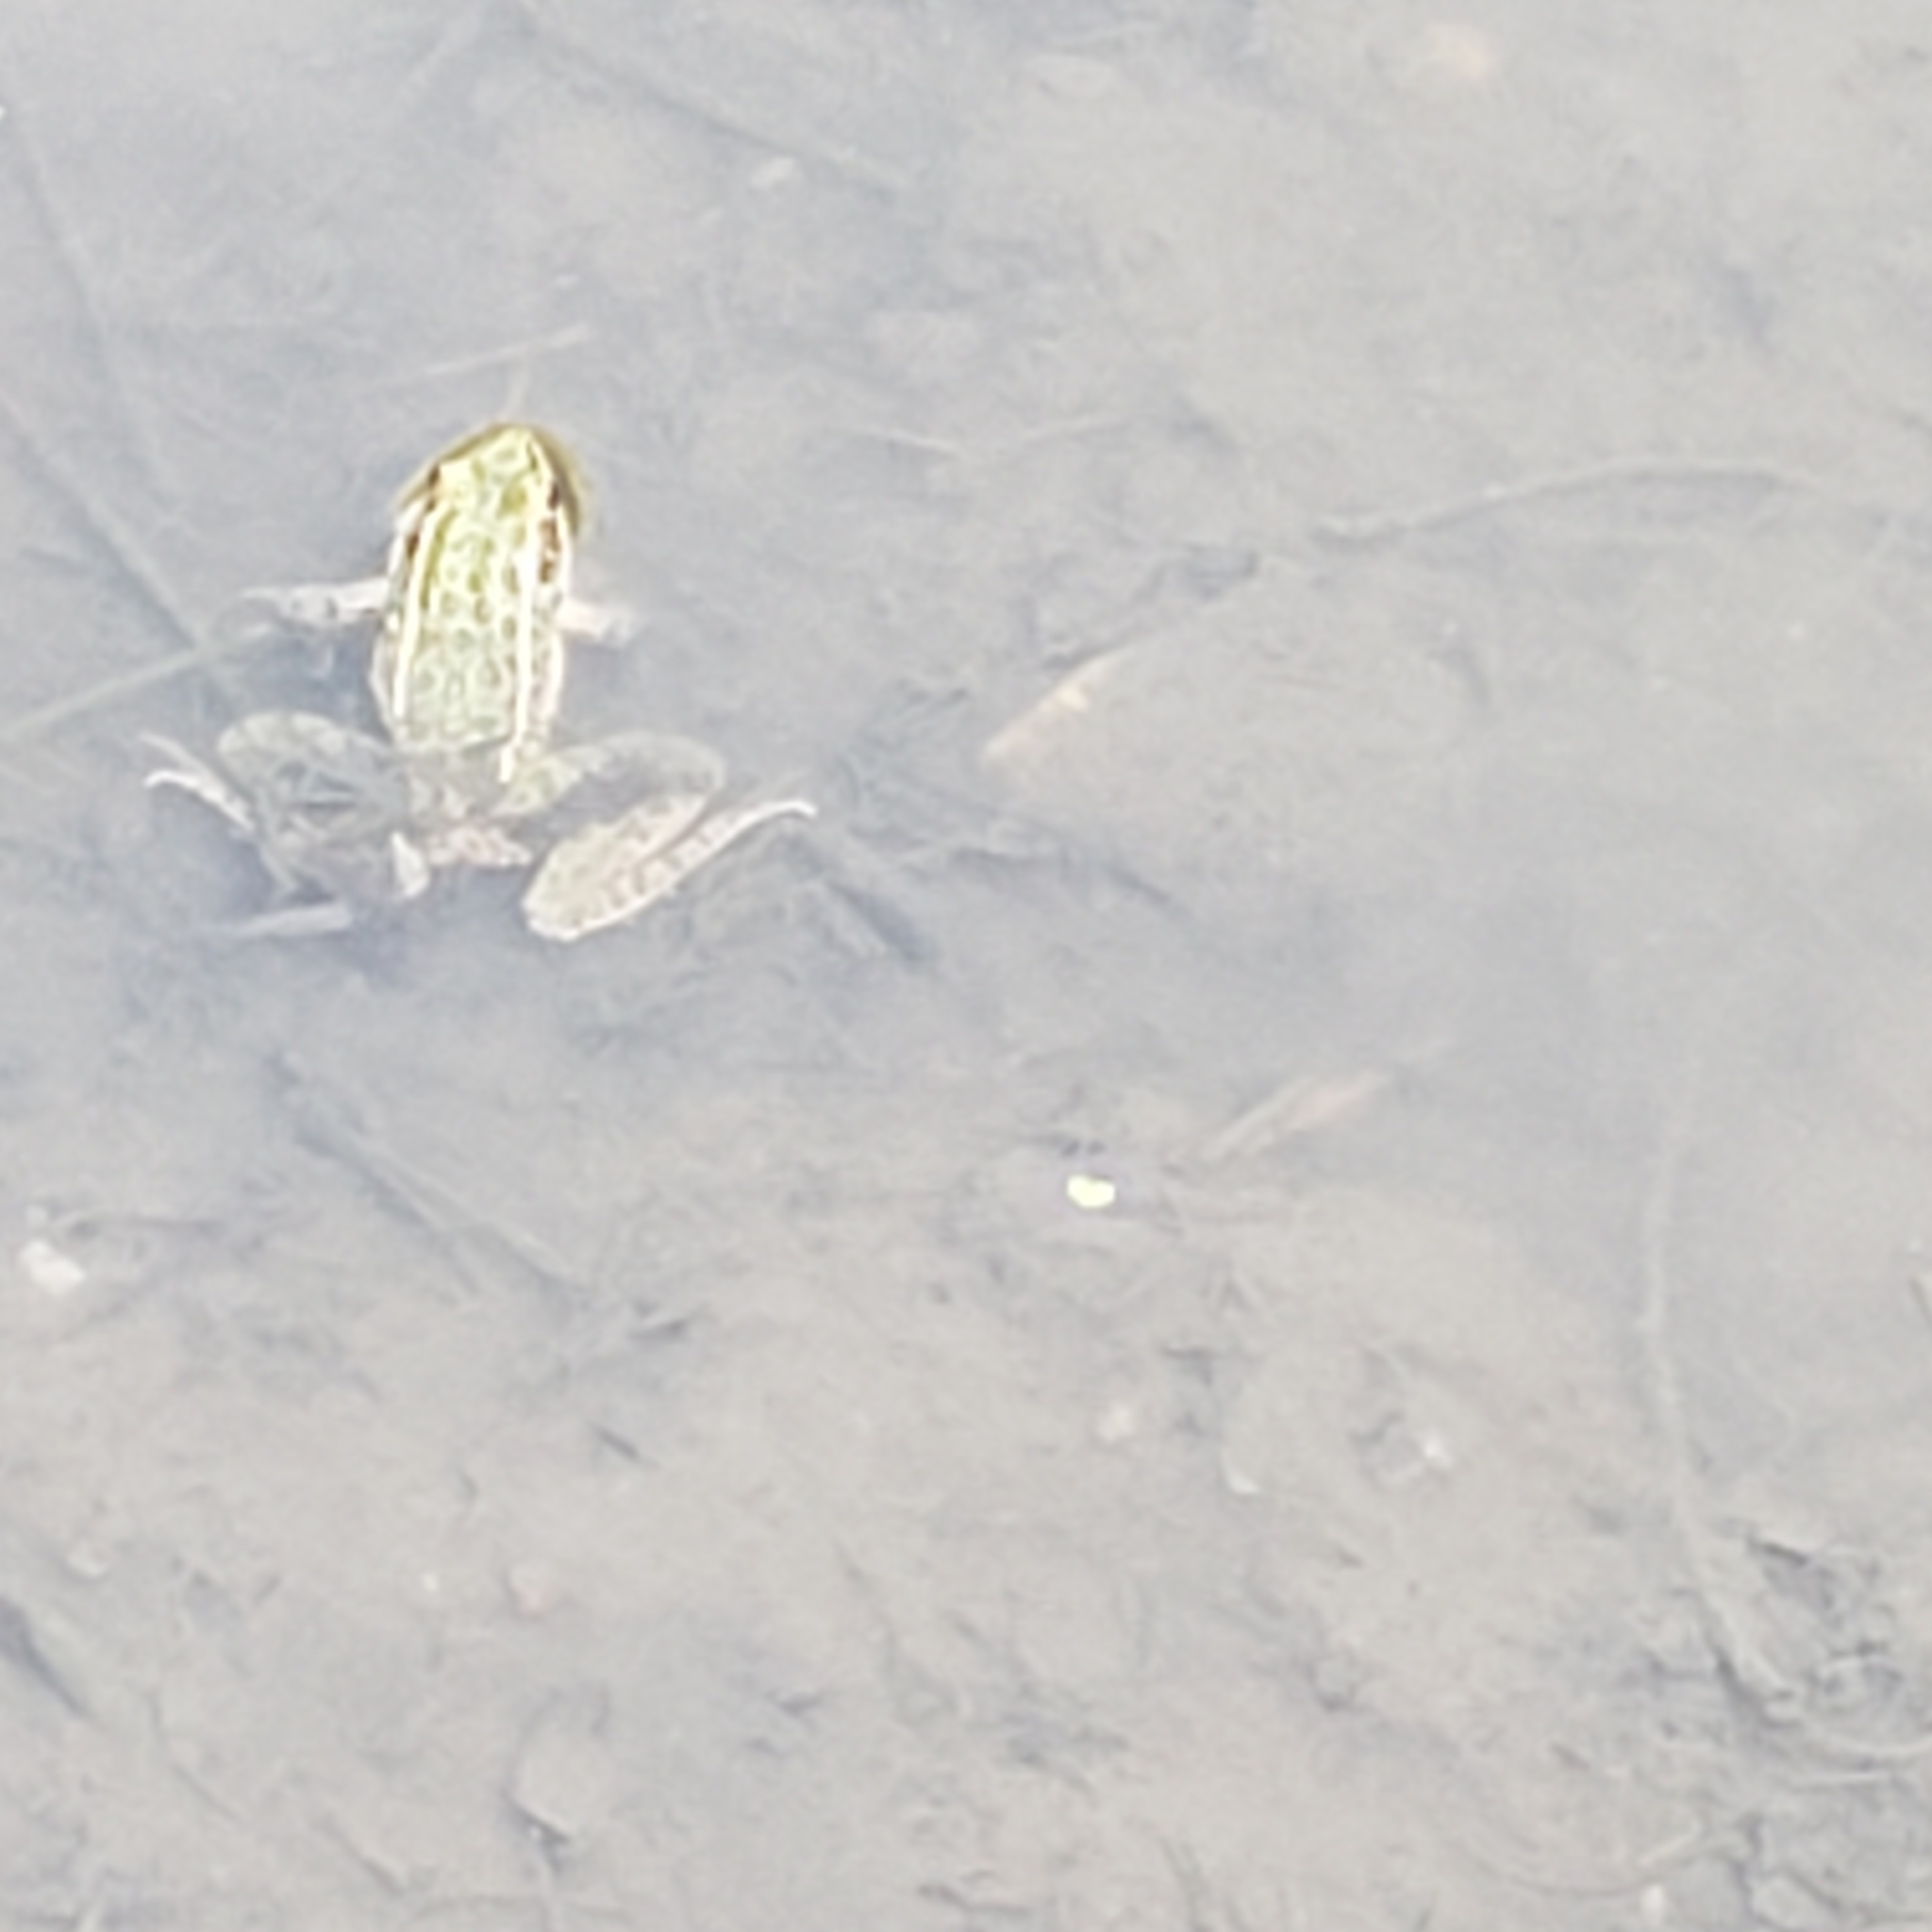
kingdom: Animalia
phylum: Chordata
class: Amphibia
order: Anura
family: Ranidae
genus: Lithobates
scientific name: Lithobates blairi
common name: Plains leopard frog
